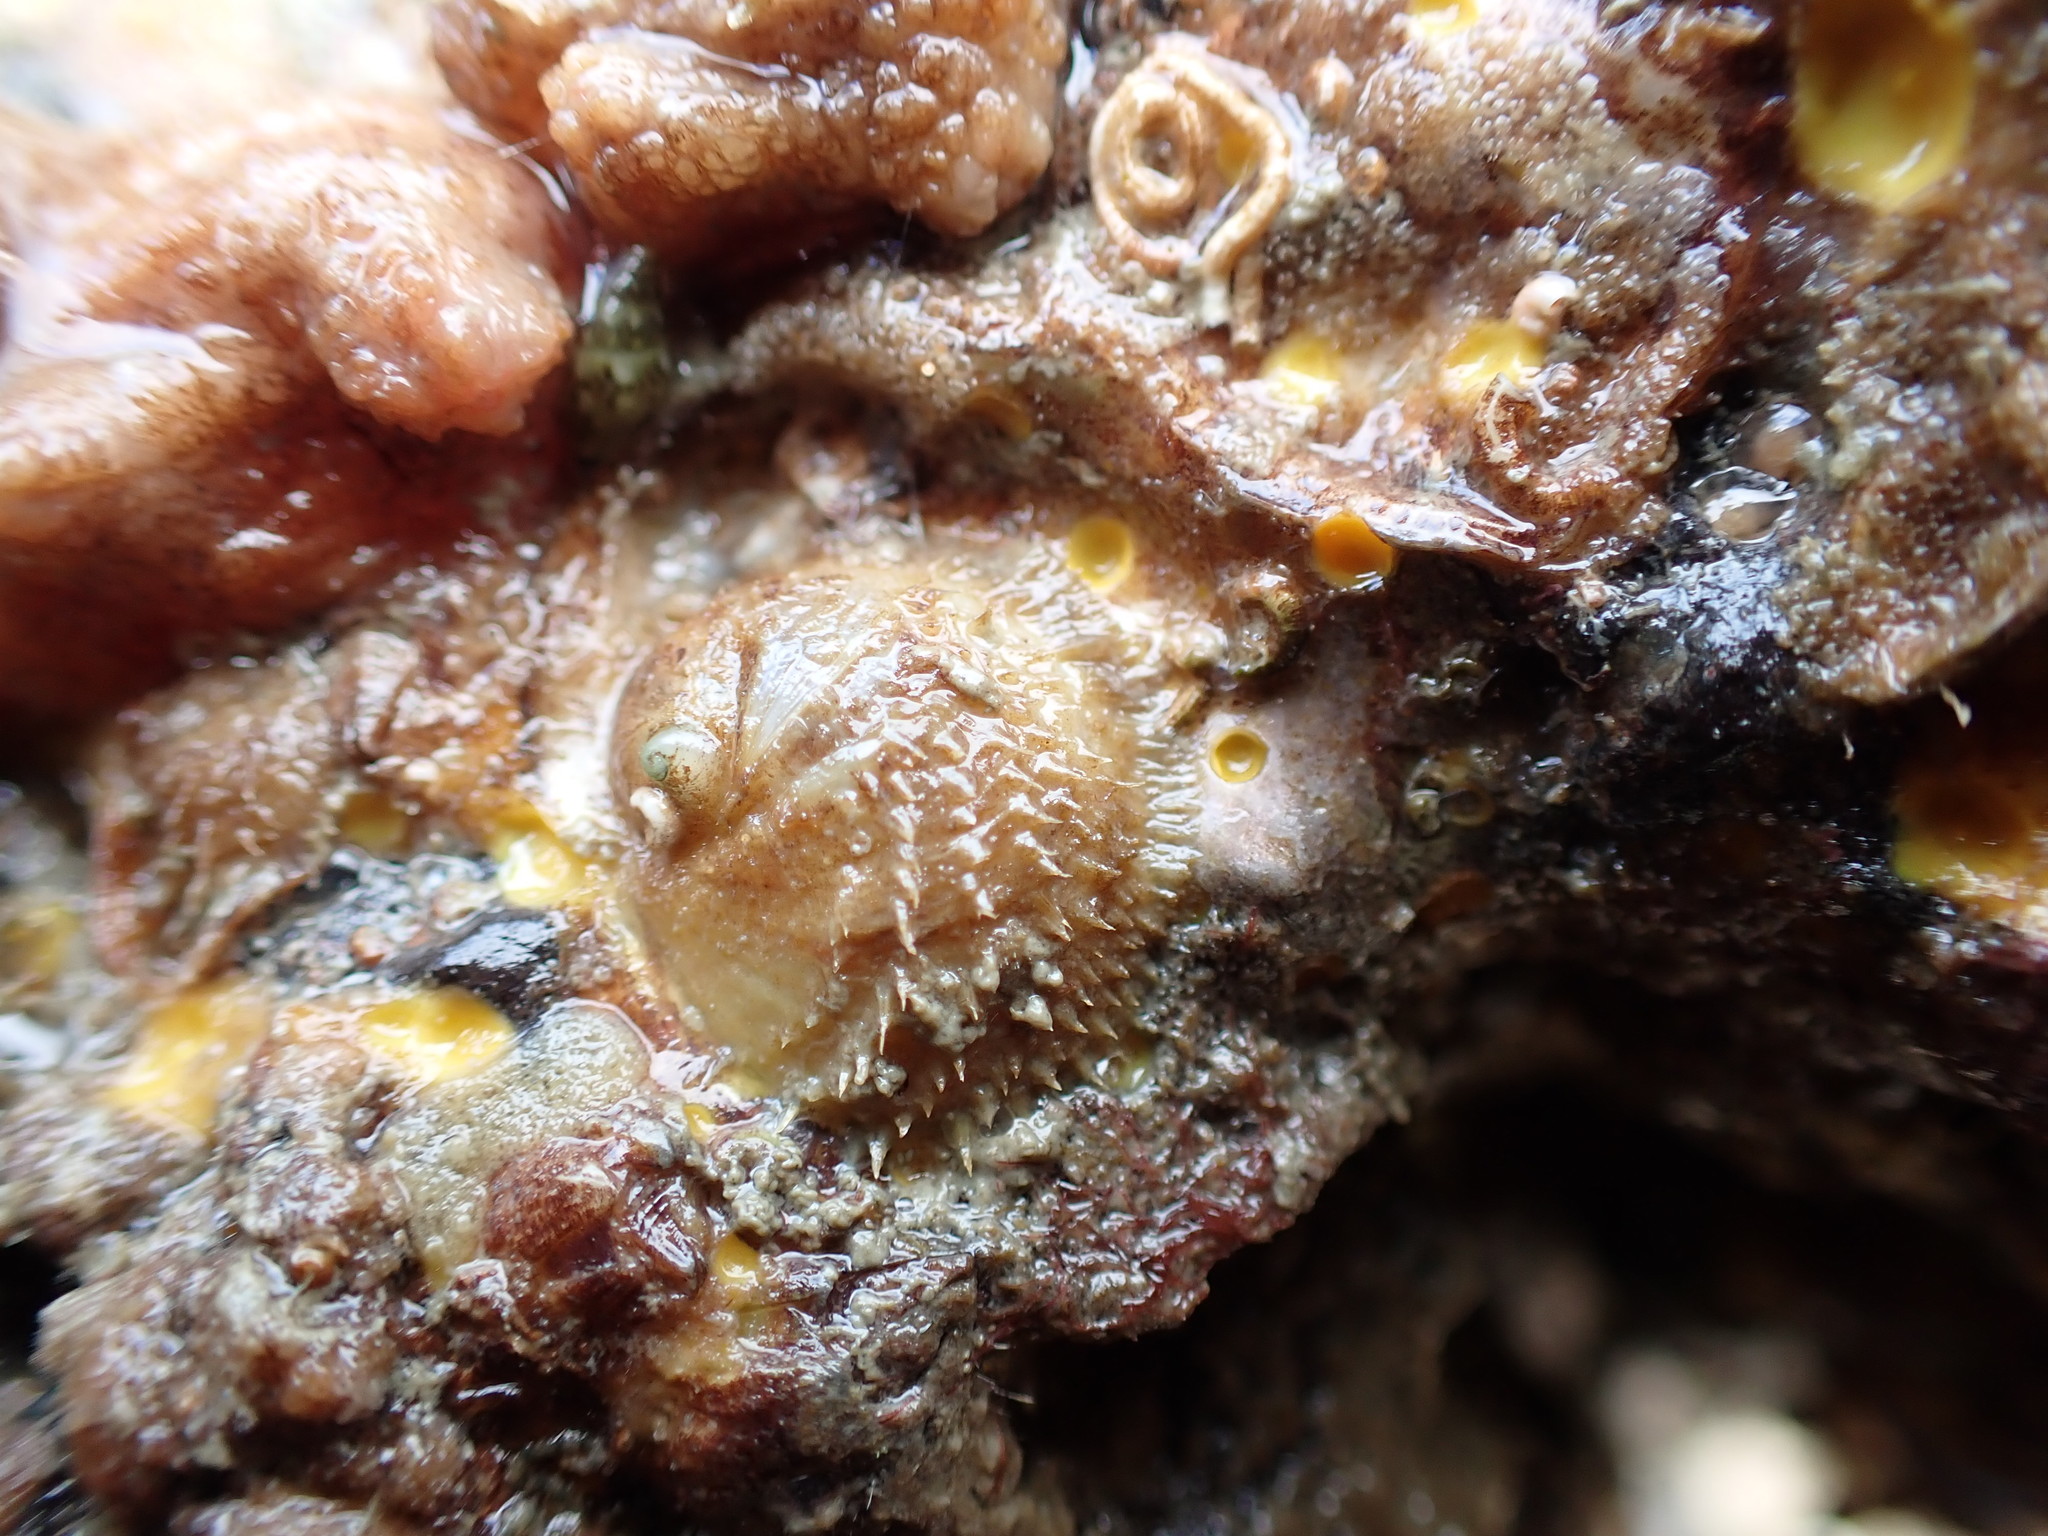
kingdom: Animalia
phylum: Mollusca
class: Gastropoda
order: Littorinimorpha
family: Calyptraeidae
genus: Sigapatella
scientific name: Sigapatella novaezelandiae
